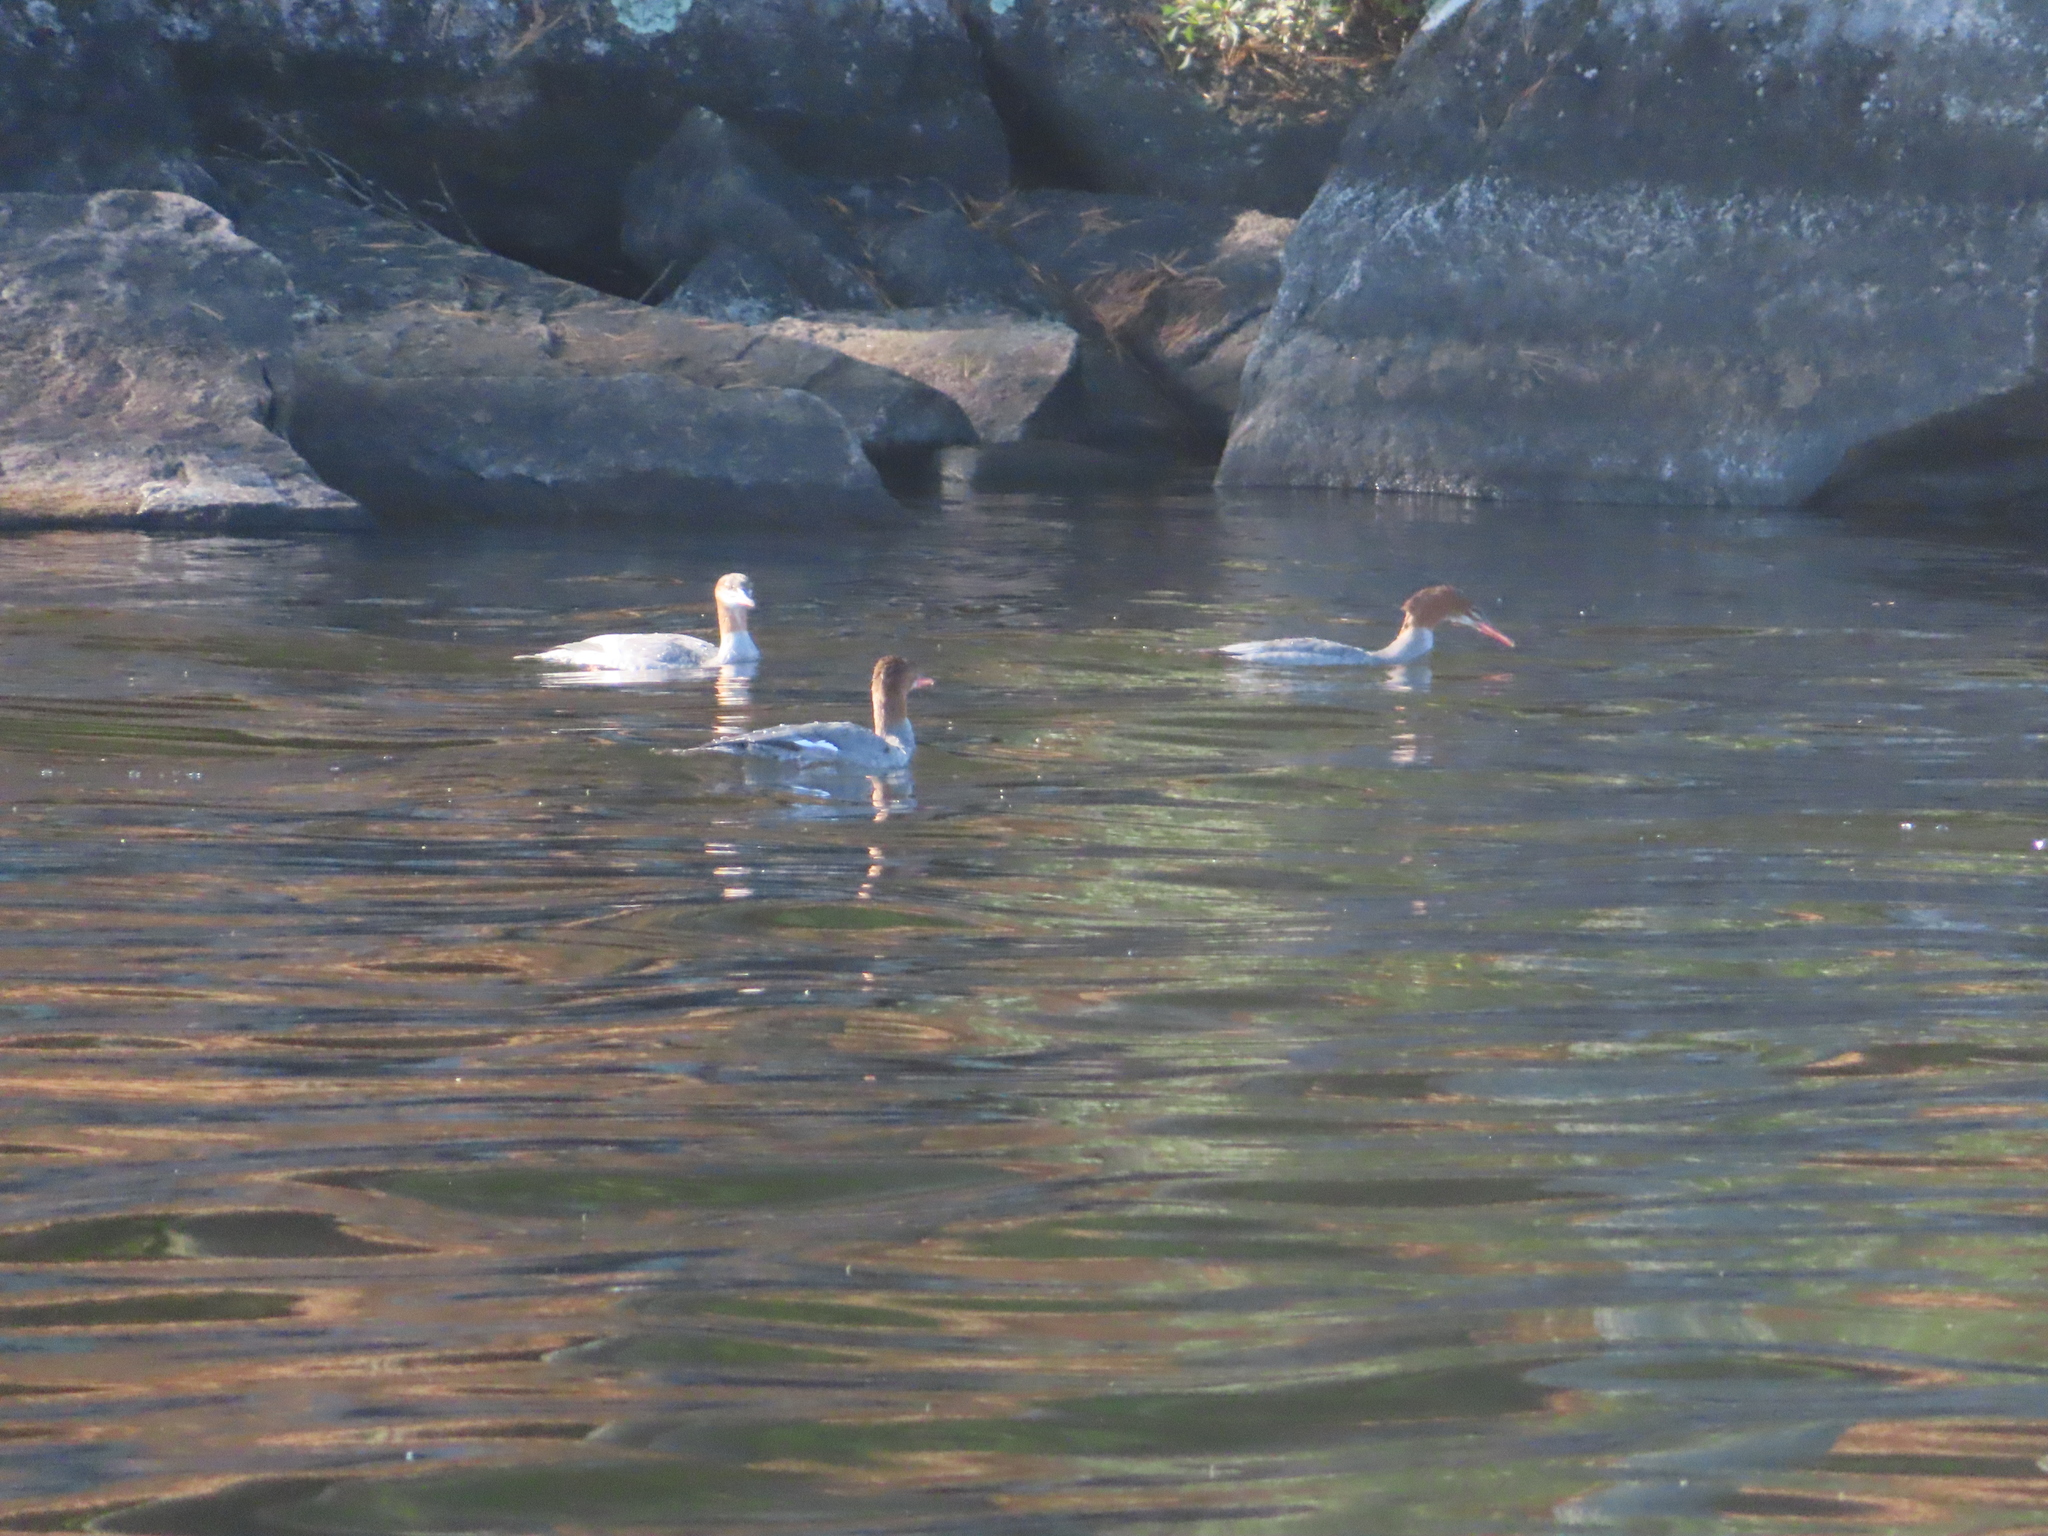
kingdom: Animalia
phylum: Chordata
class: Aves
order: Anseriformes
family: Anatidae
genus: Mergus
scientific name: Mergus merganser
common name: Common merganser
